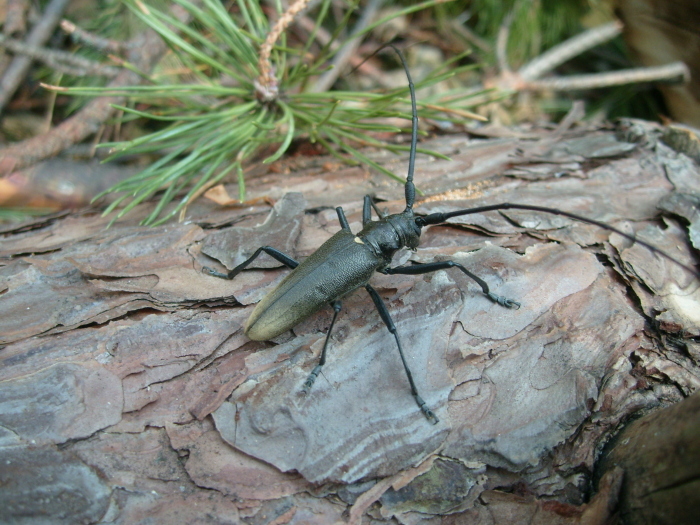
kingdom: Animalia
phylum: Arthropoda
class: Insecta
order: Coleoptera
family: Cerambycidae
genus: Monochamus
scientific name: Monochamus urussovii
